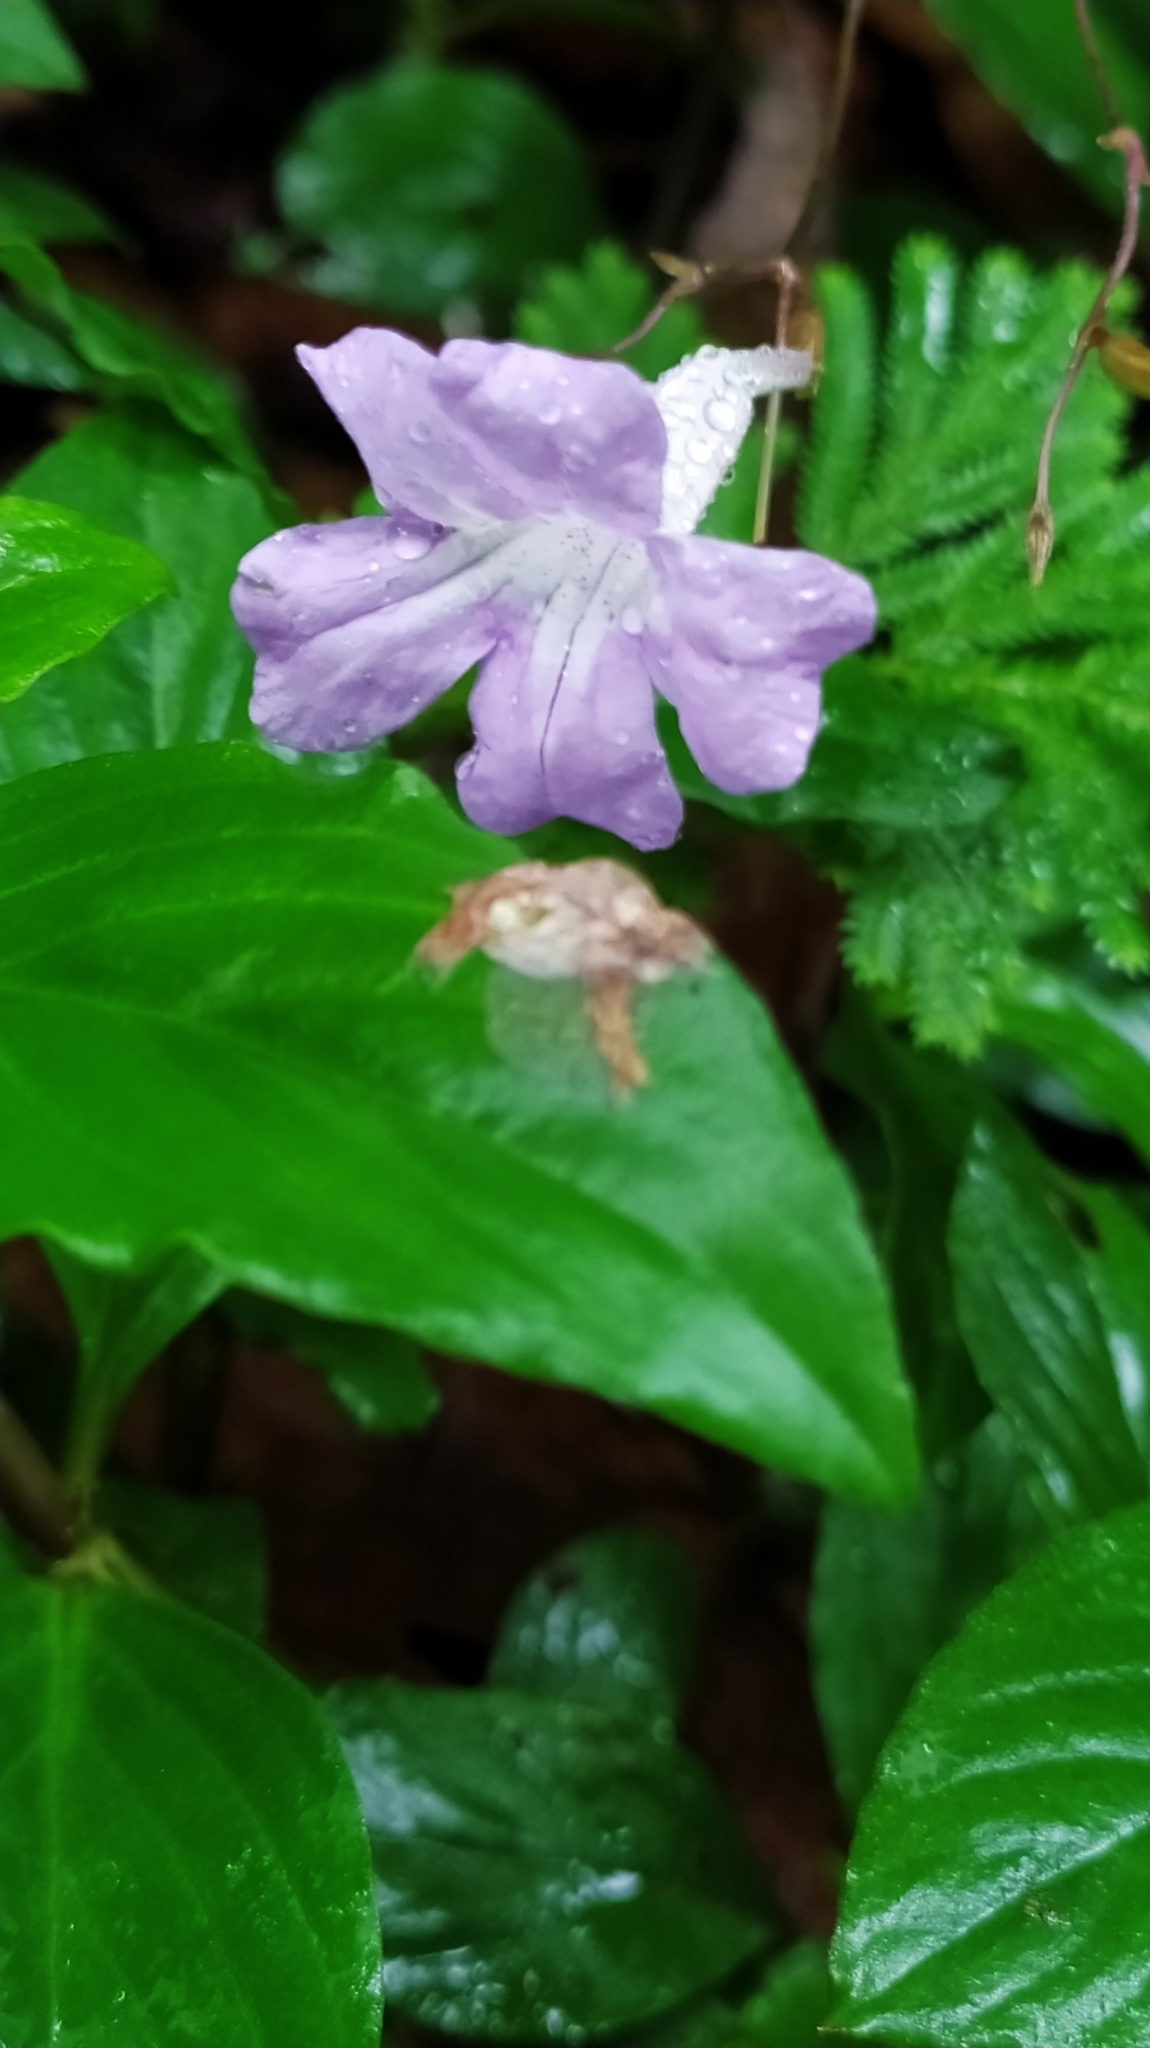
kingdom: Plantae
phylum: Tracheophyta
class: Magnoliopsida
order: Lamiales
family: Acanthaceae
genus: Ruellia
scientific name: Ruellia rubra
